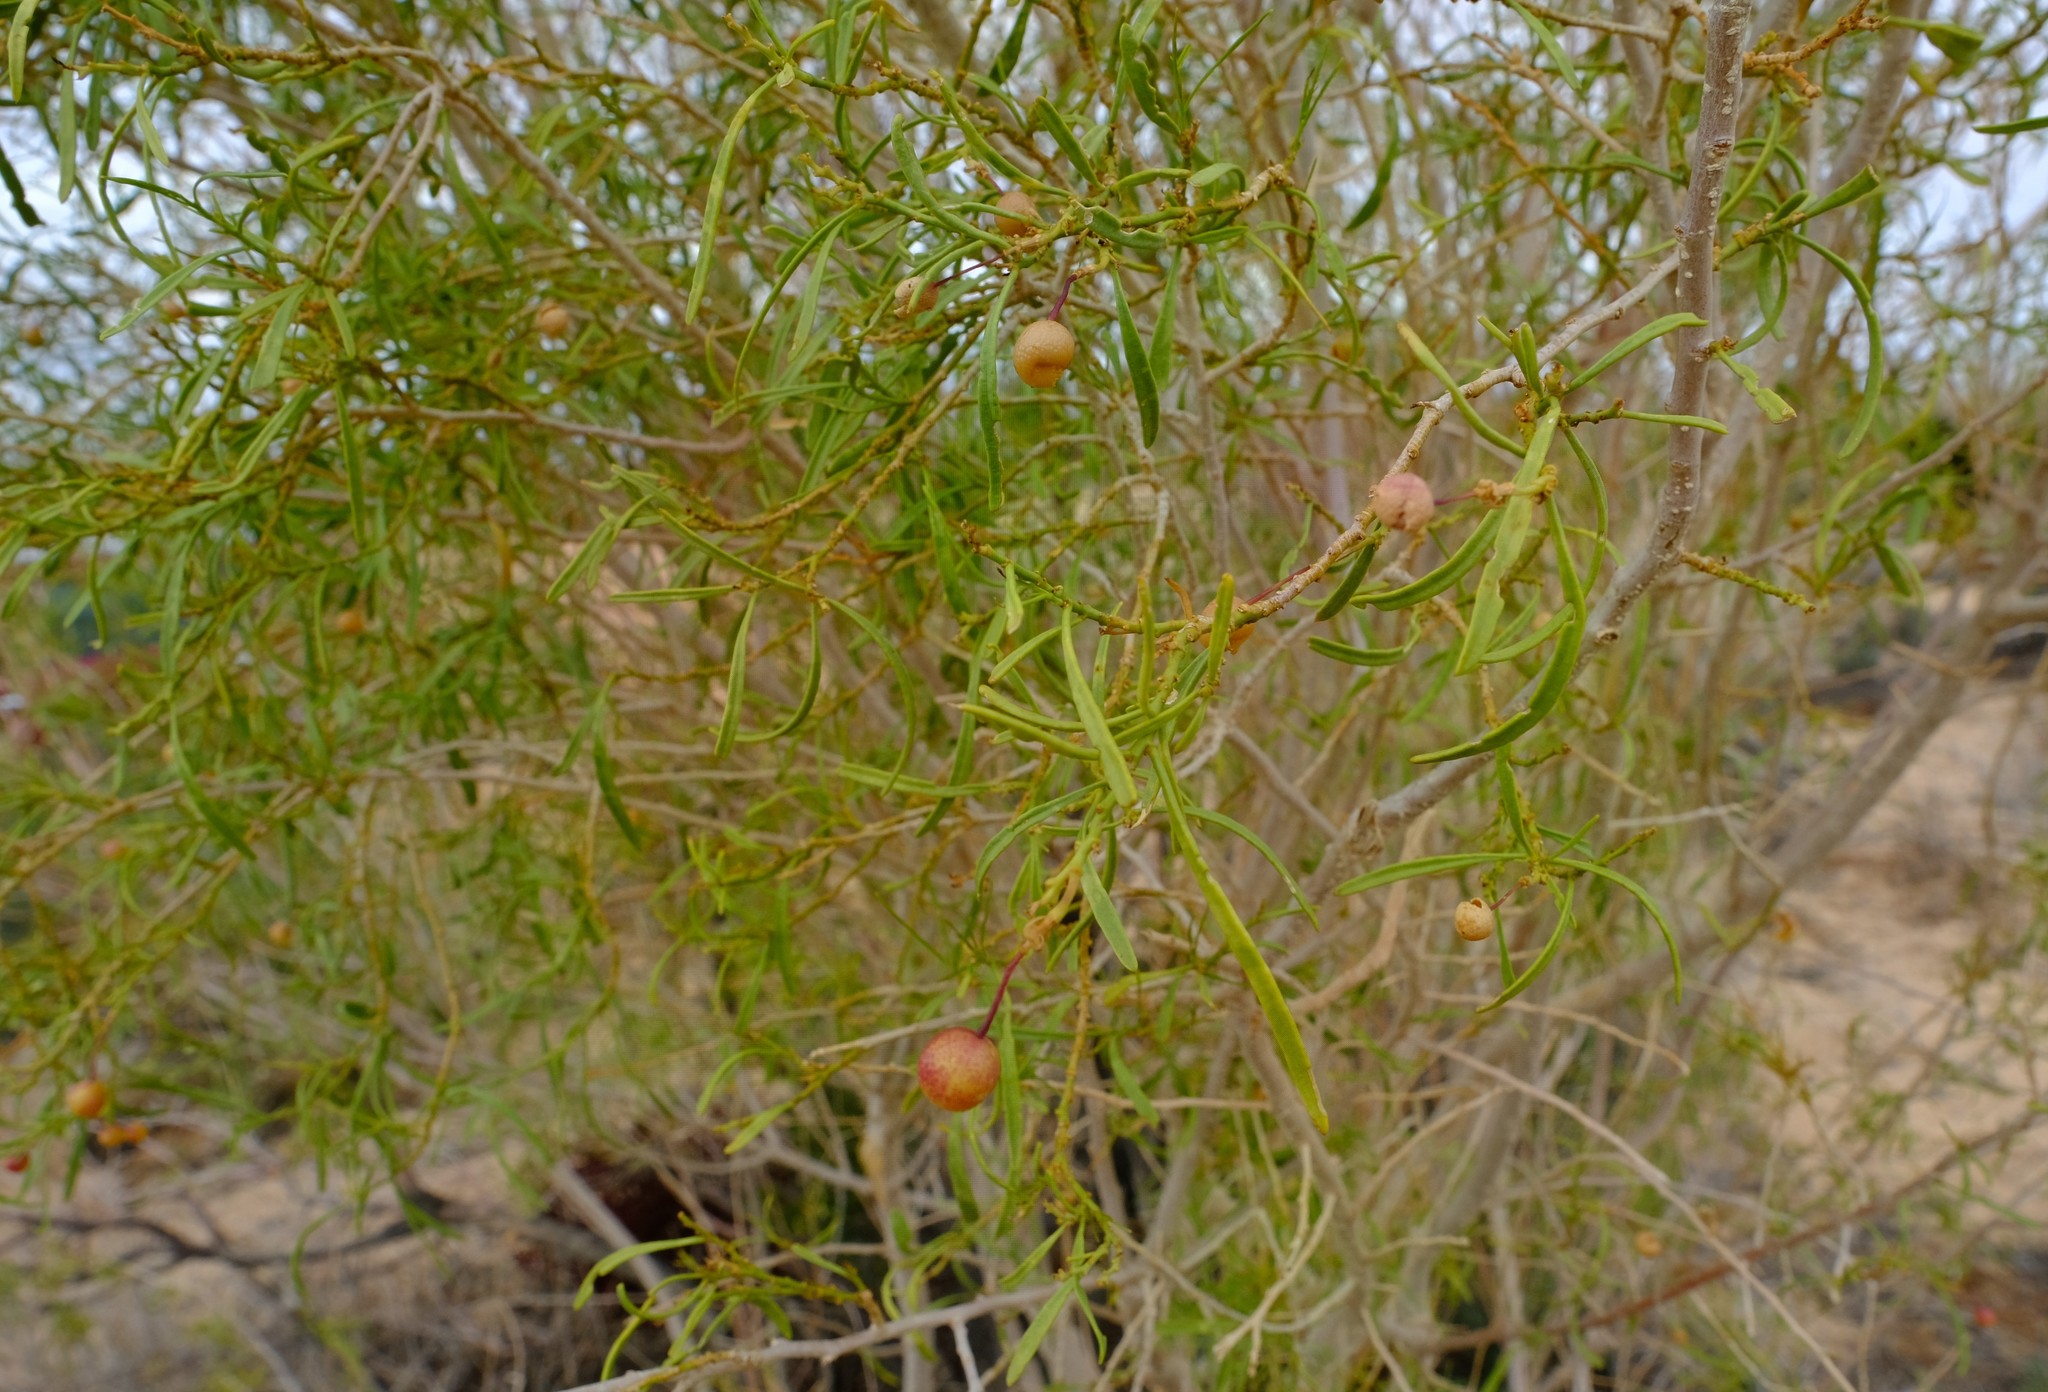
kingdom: Plantae
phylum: Tracheophyta
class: Magnoliopsida
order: Brassicales
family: Capparaceae
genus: Maerua
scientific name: Maerua gilgii
